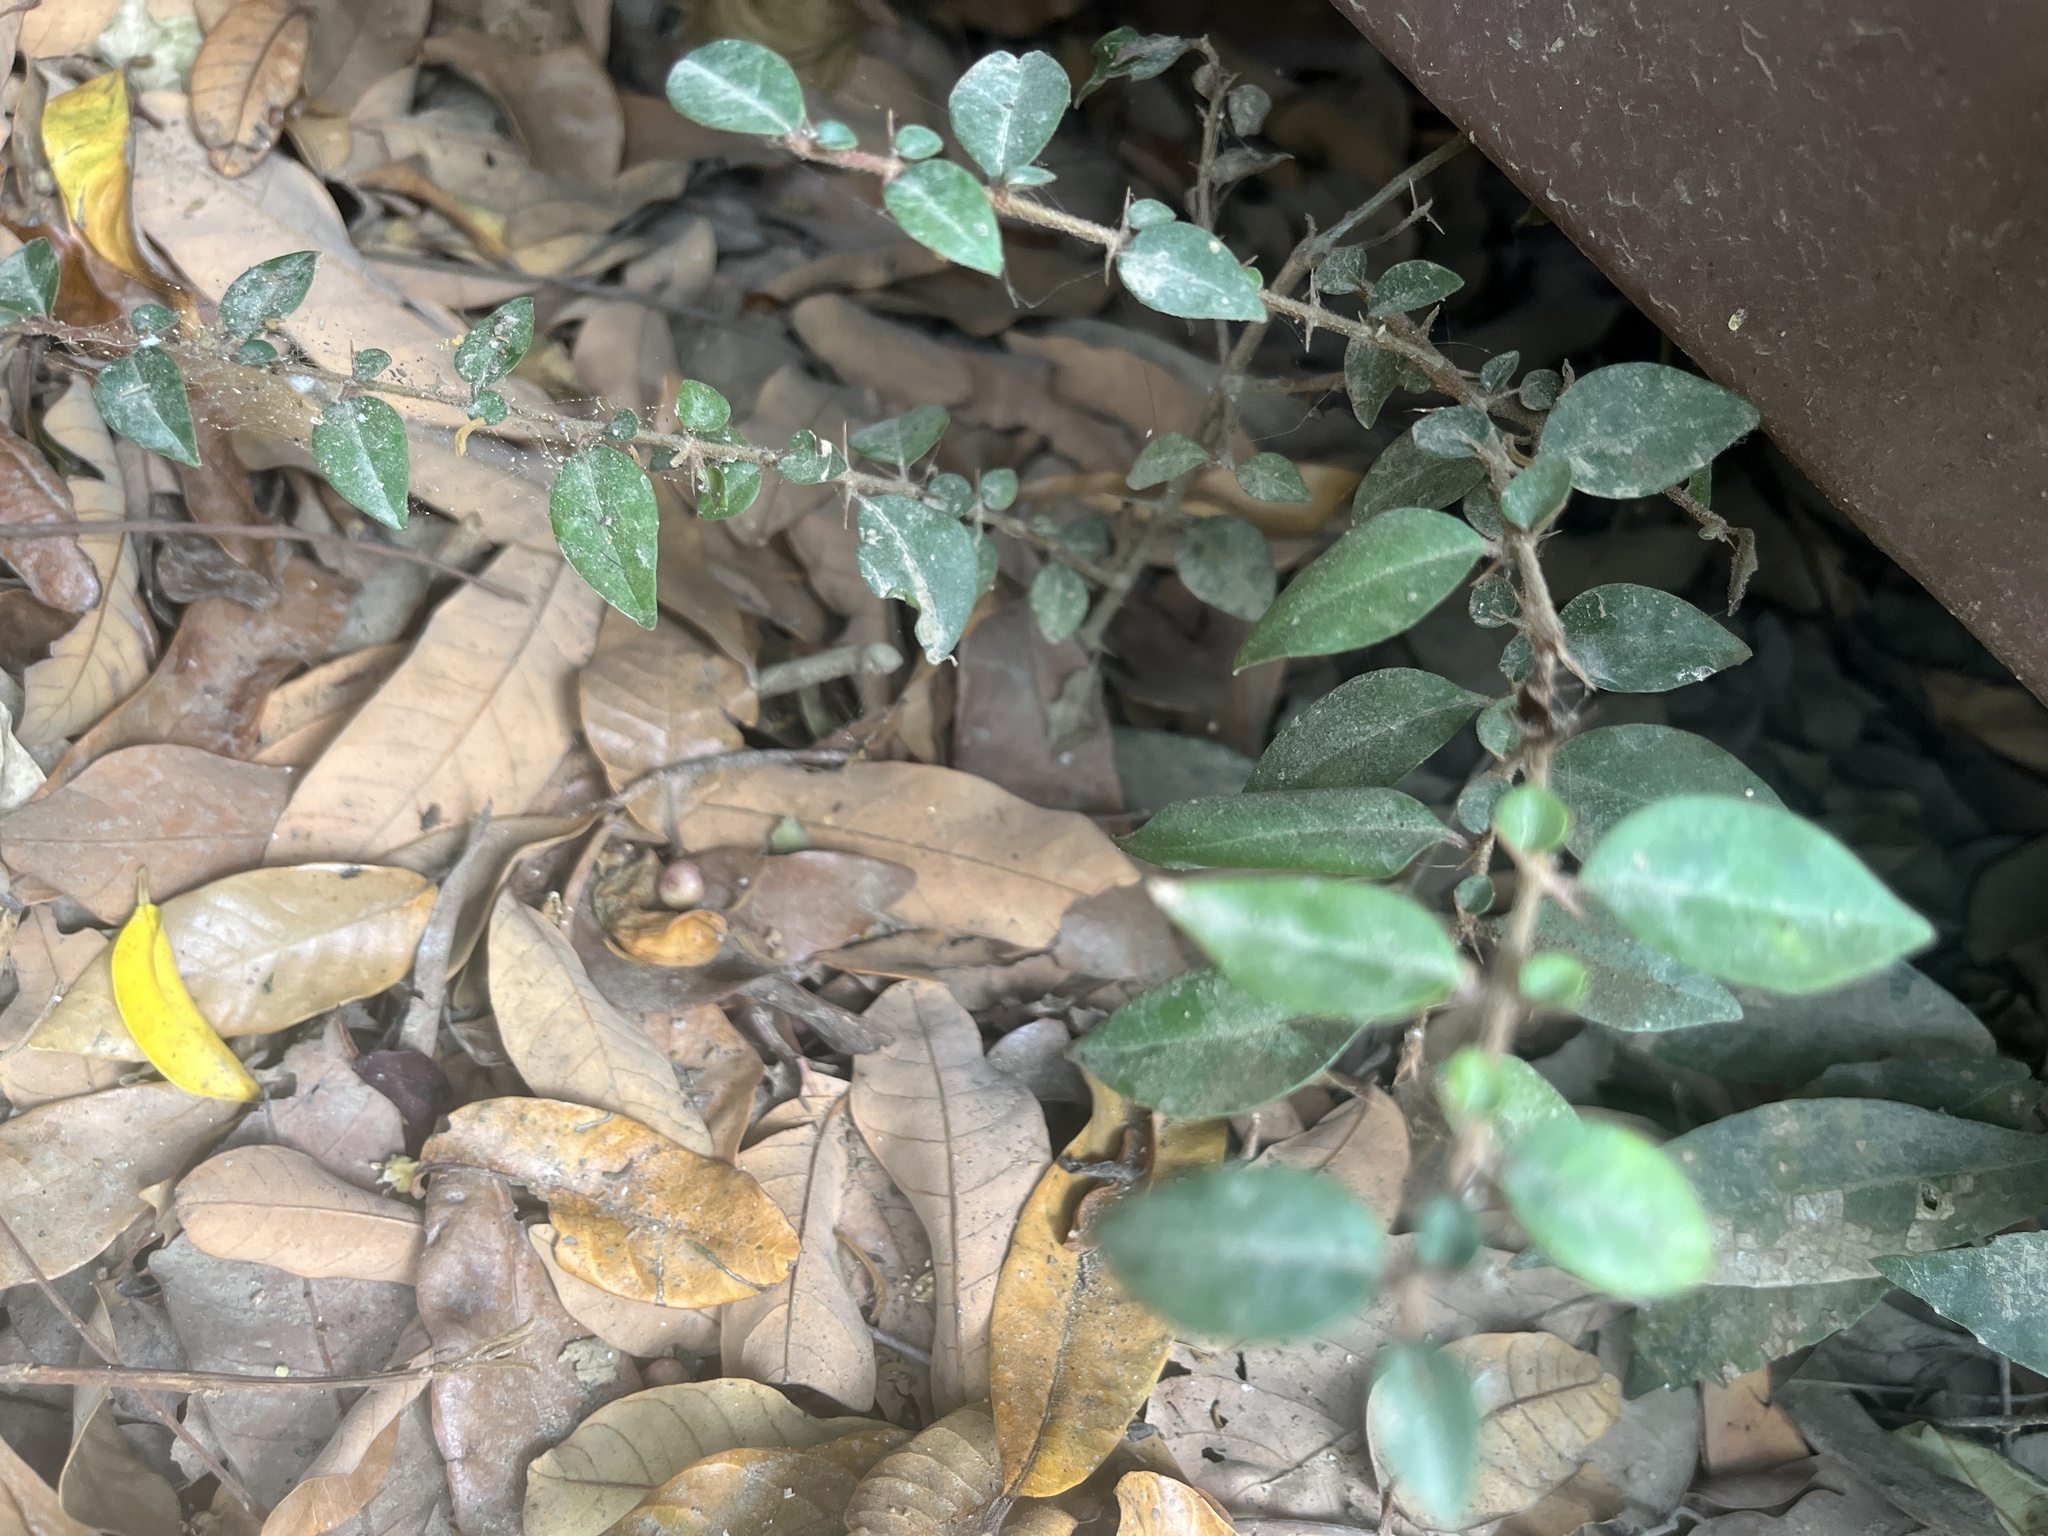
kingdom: Plantae
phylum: Tracheophyta
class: Magnoliopsida
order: Caryophyllales
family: Nyctaginaceae
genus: Pisonia
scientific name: Pisonia aculeata
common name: Cockspur vine
